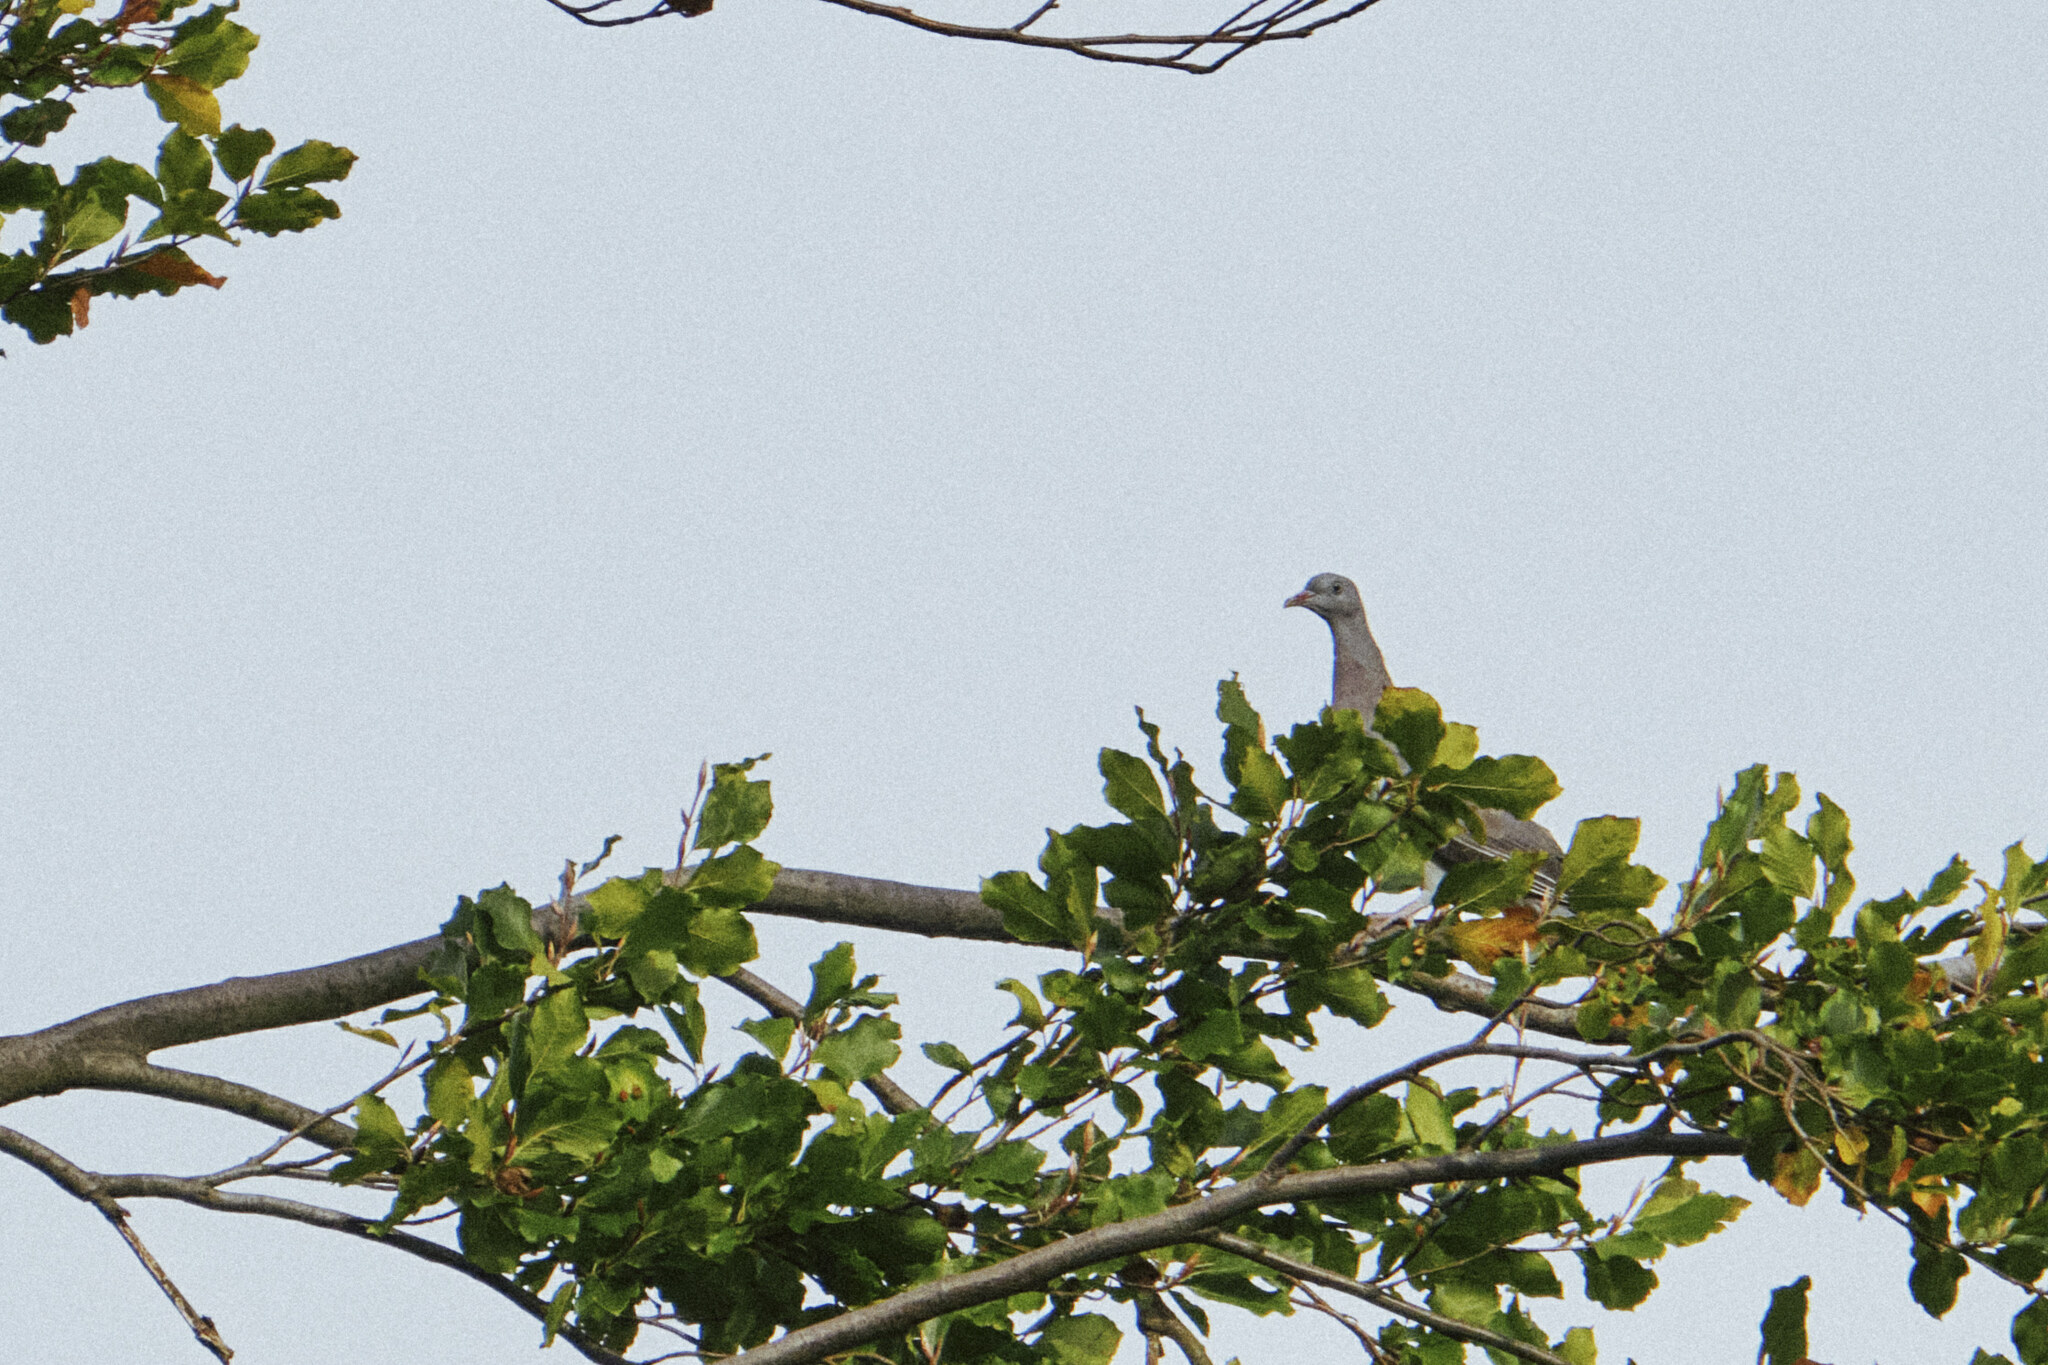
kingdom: Animalia
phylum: Chordata
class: Aves
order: Columbiformes
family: Columbidae
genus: Columba
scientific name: Columba palumbus
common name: Common wood pigeon
